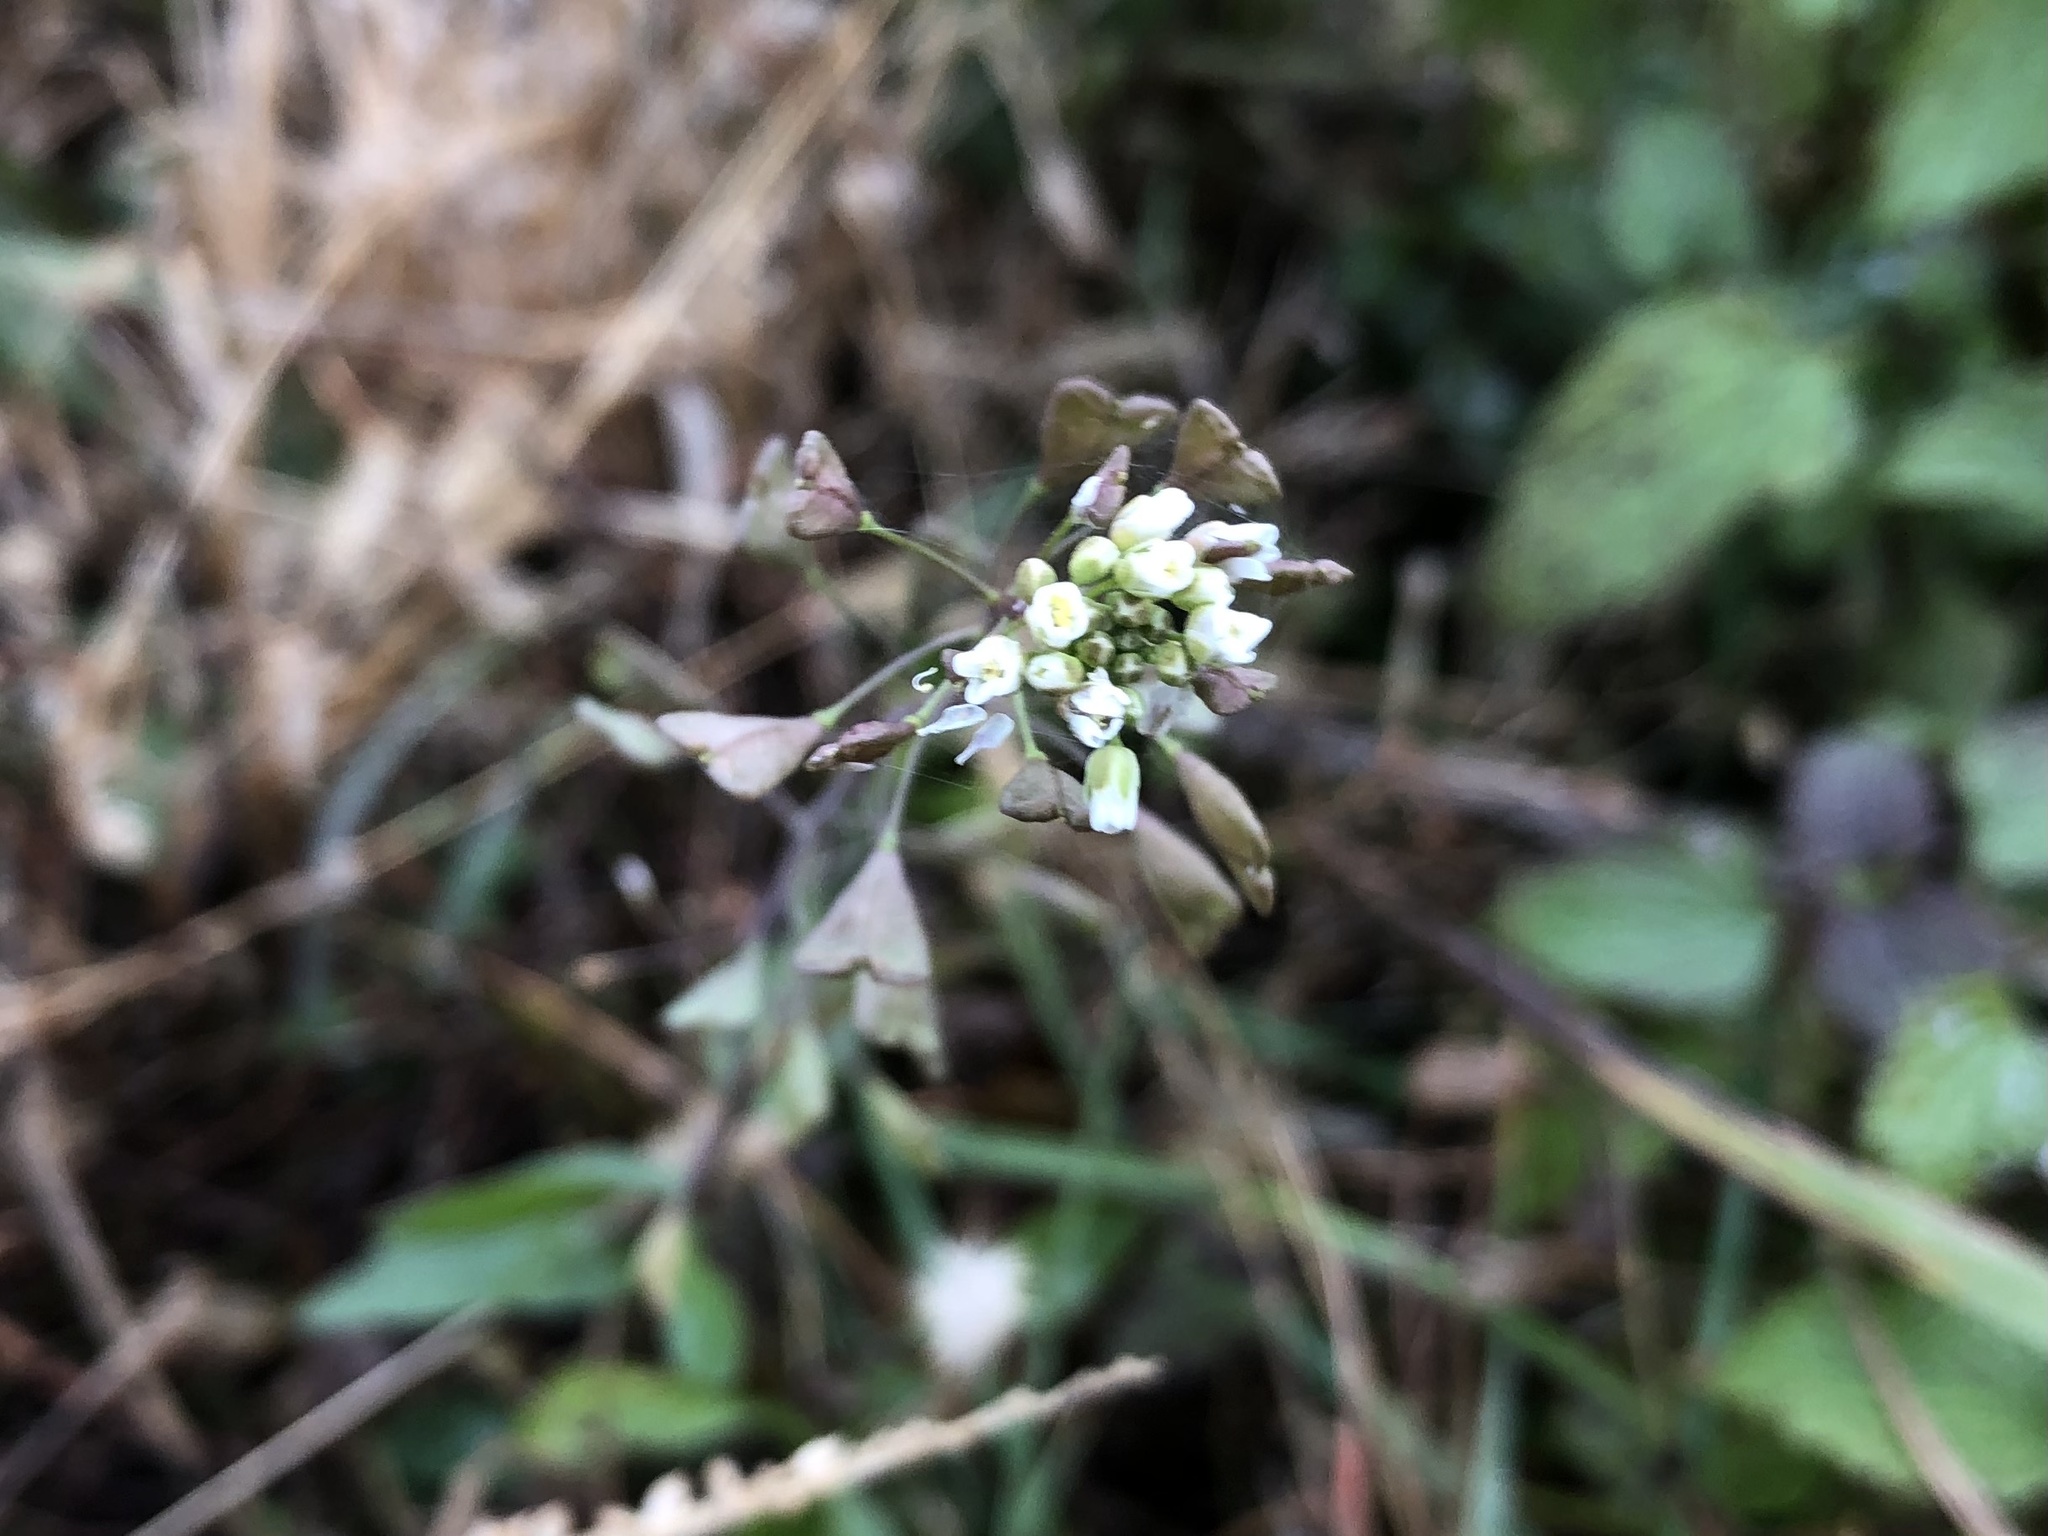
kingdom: Plantae
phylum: Tracheophyta
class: Magnoliopsida
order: Brassicales
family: Brassicaceae
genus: Capsella
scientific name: Capsella bursa-pastoris
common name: Shepherd's purse
